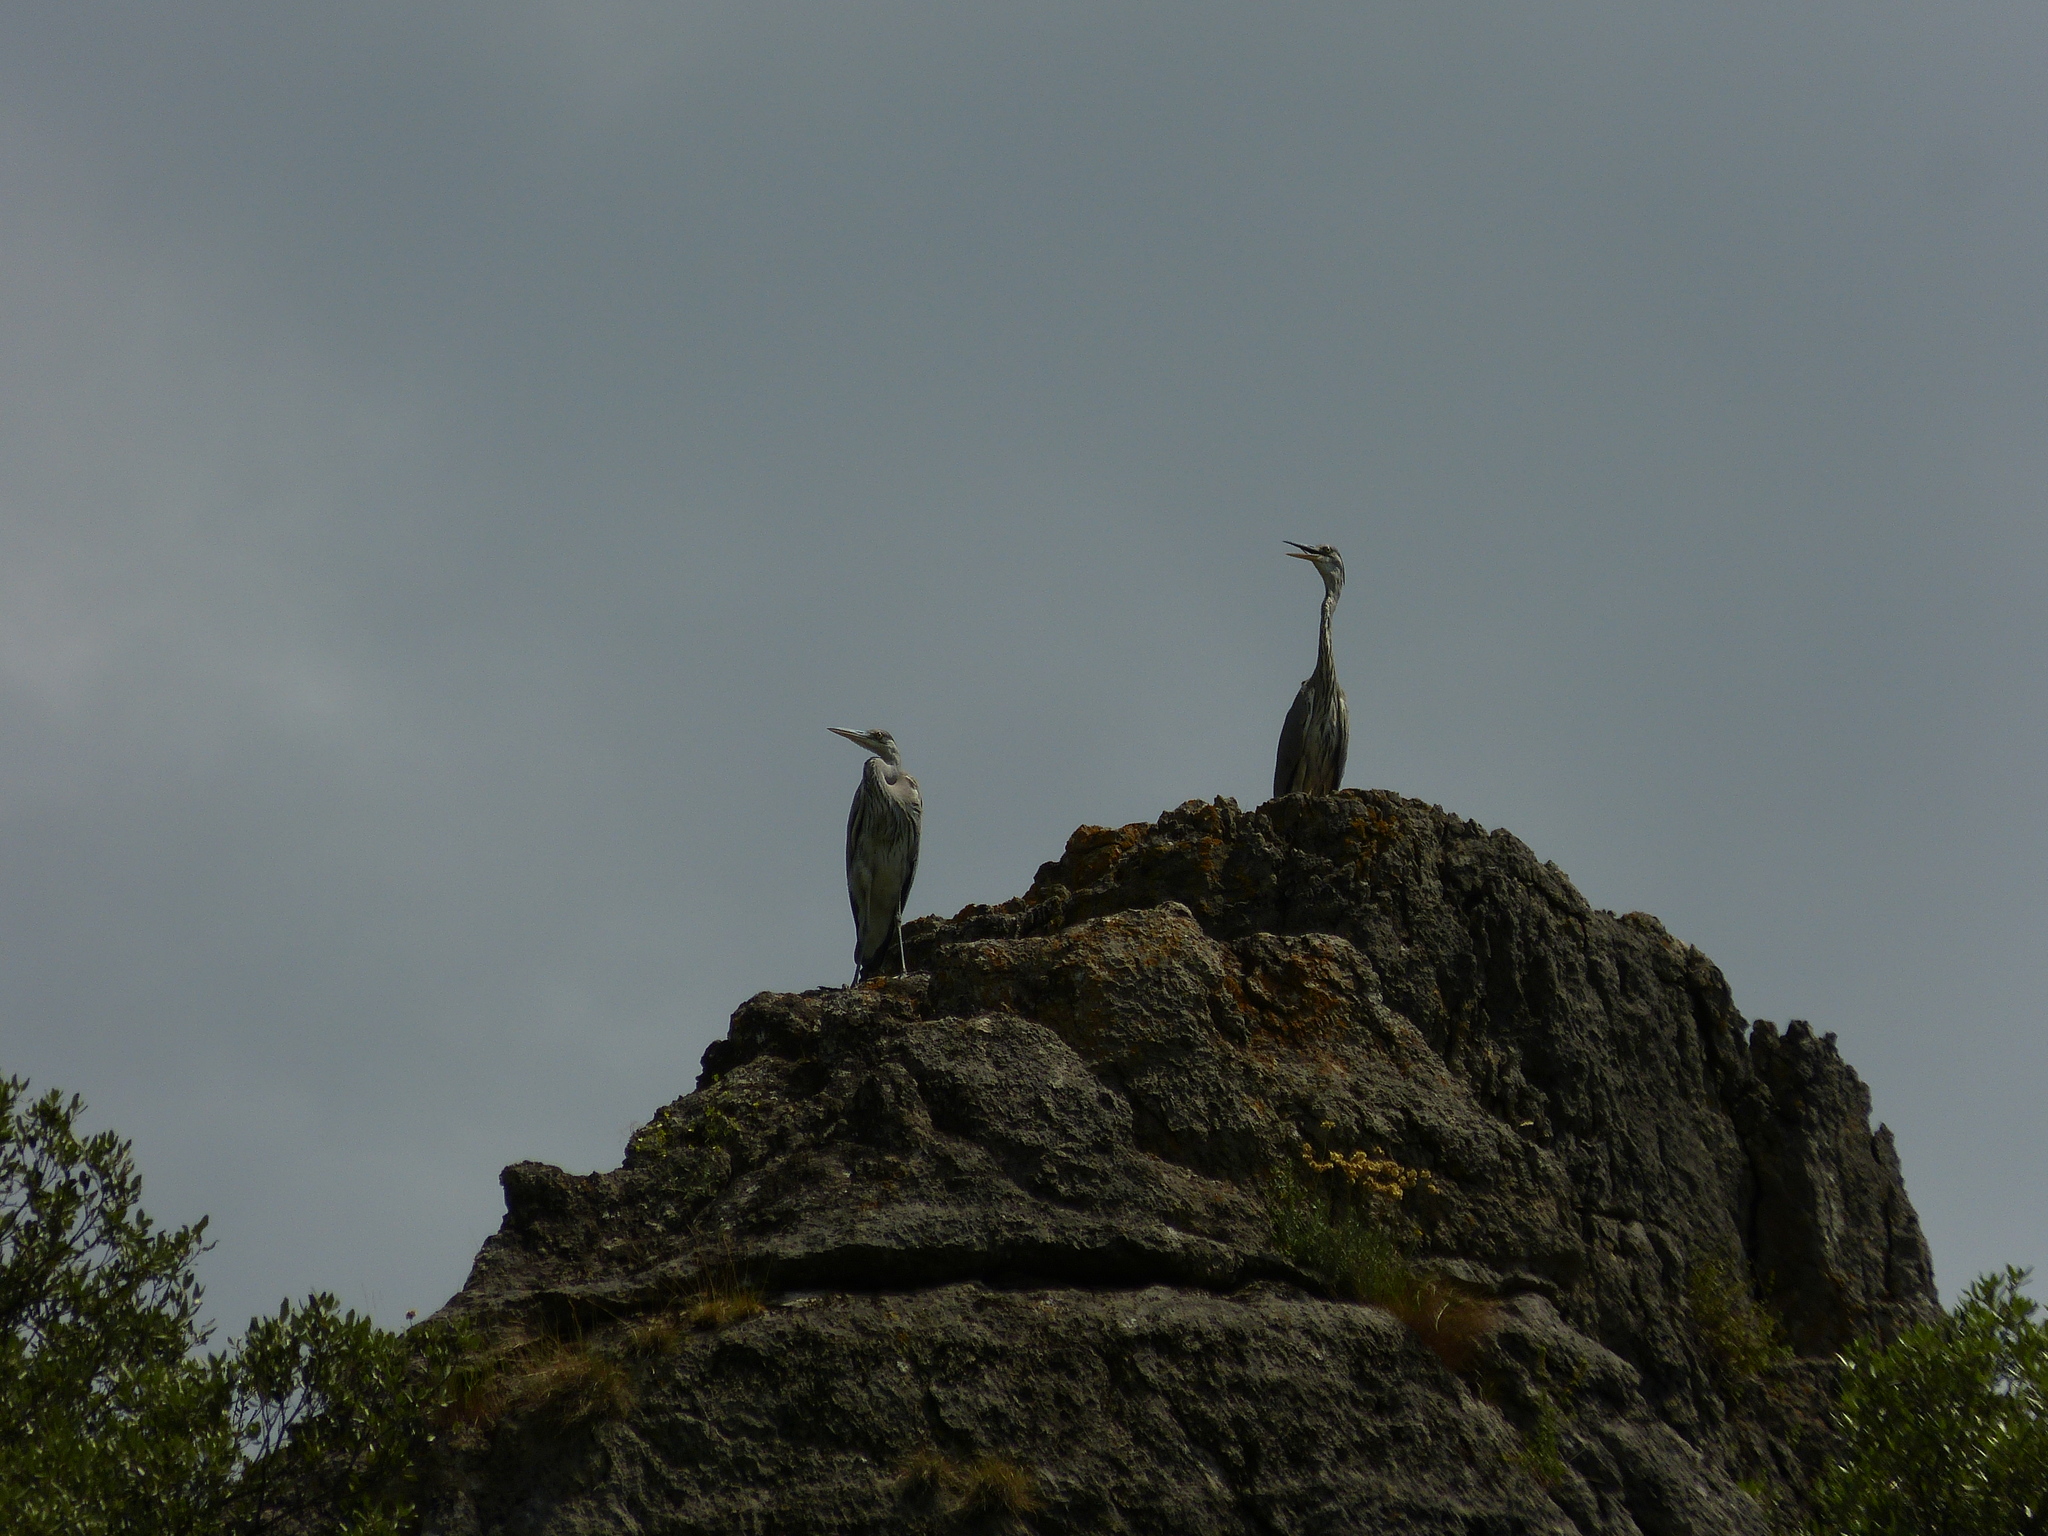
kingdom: Animalia
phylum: Chordata
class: Aves
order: Pelecaniformes
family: Ardeidae
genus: Ardea
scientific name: Ardea cinerea
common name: Grey heron
